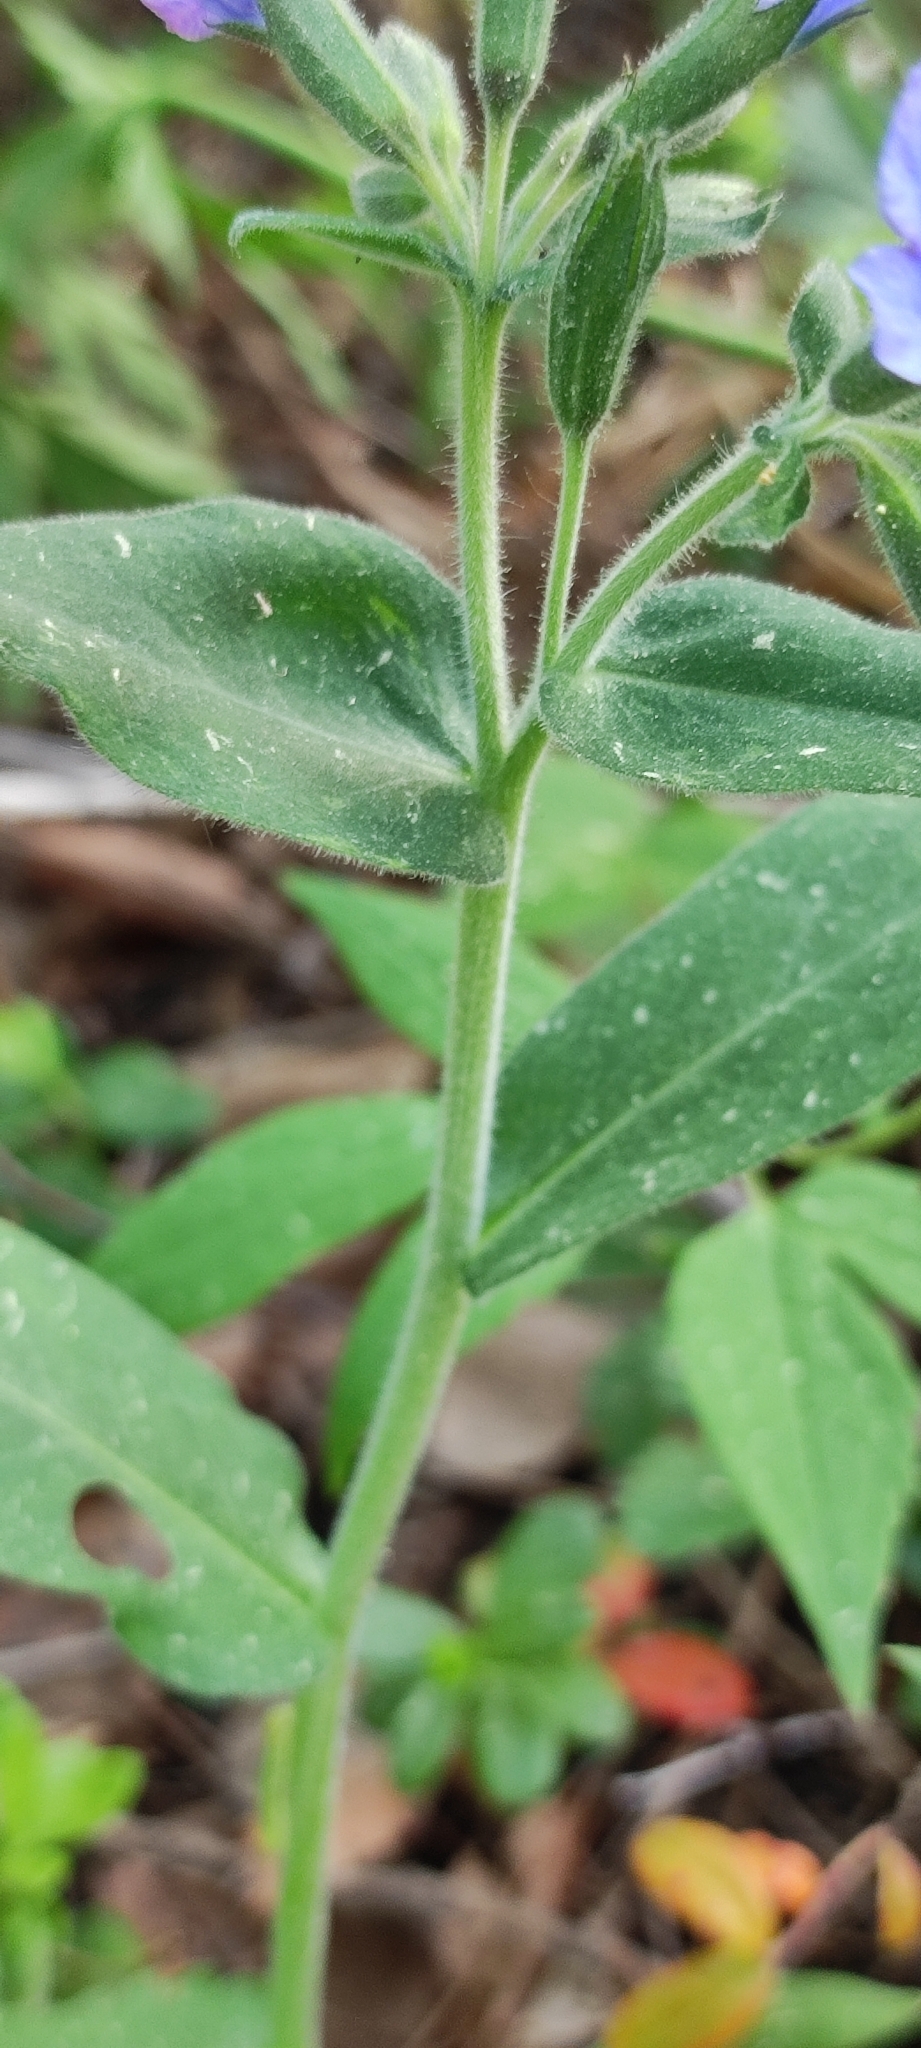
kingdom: Plantae
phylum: Tracheophyta
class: Magnoliopsida
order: Boraginales
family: Boraginaceae
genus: Pulmonaria
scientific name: Pulmonaria mollis
